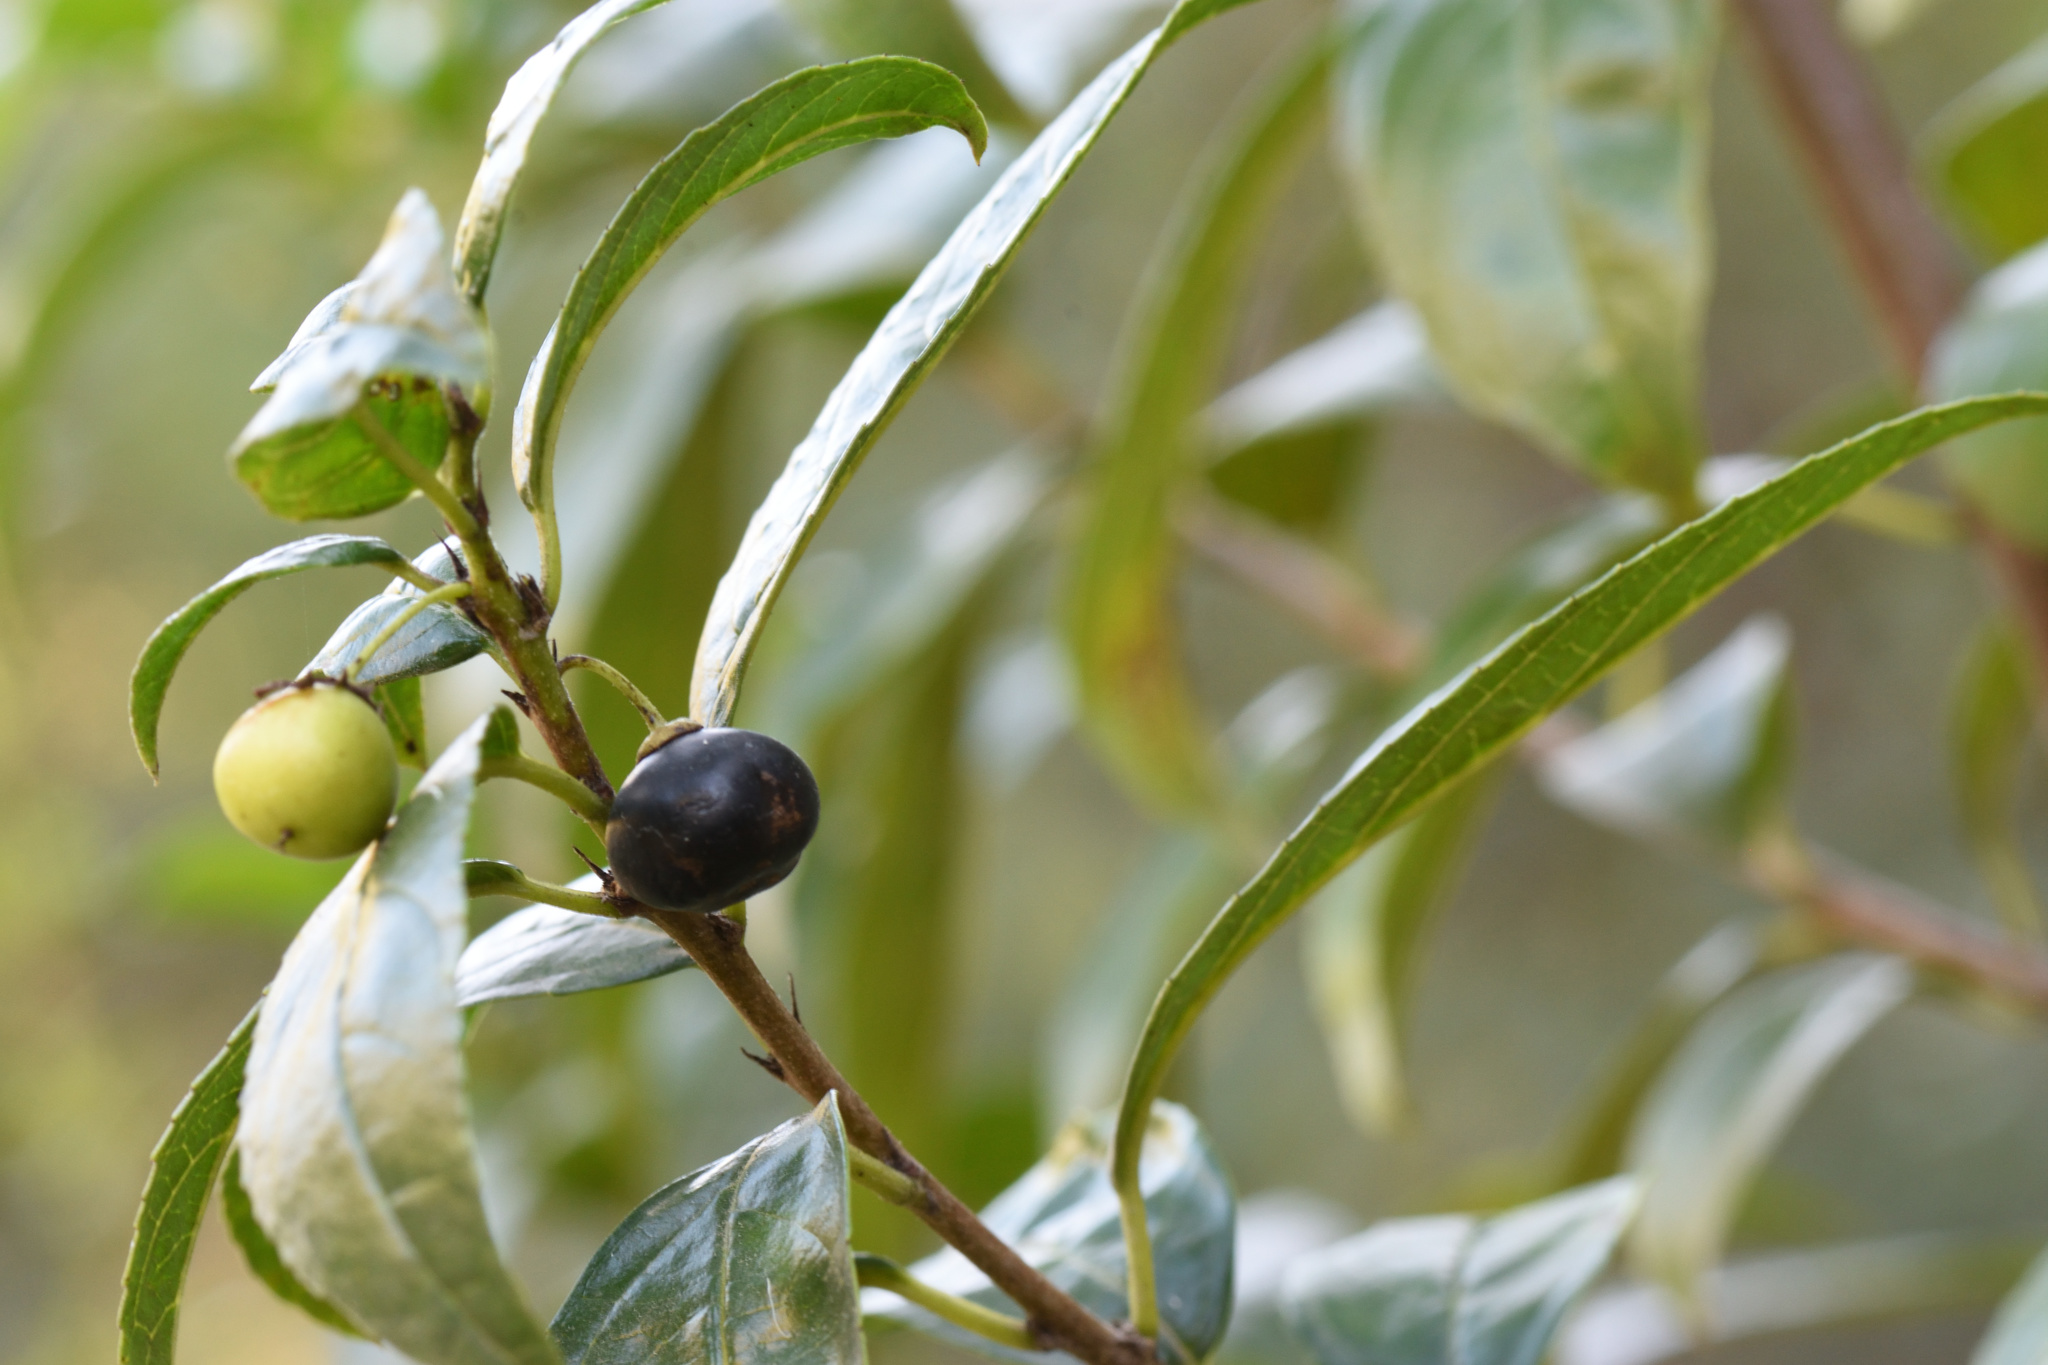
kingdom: Plantae
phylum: Tracheophyta
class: Magnoliopsida
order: Rosales
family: Rhamnaceae
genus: Rhamnus
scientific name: Rhamnus prinoides
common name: Dogwood
